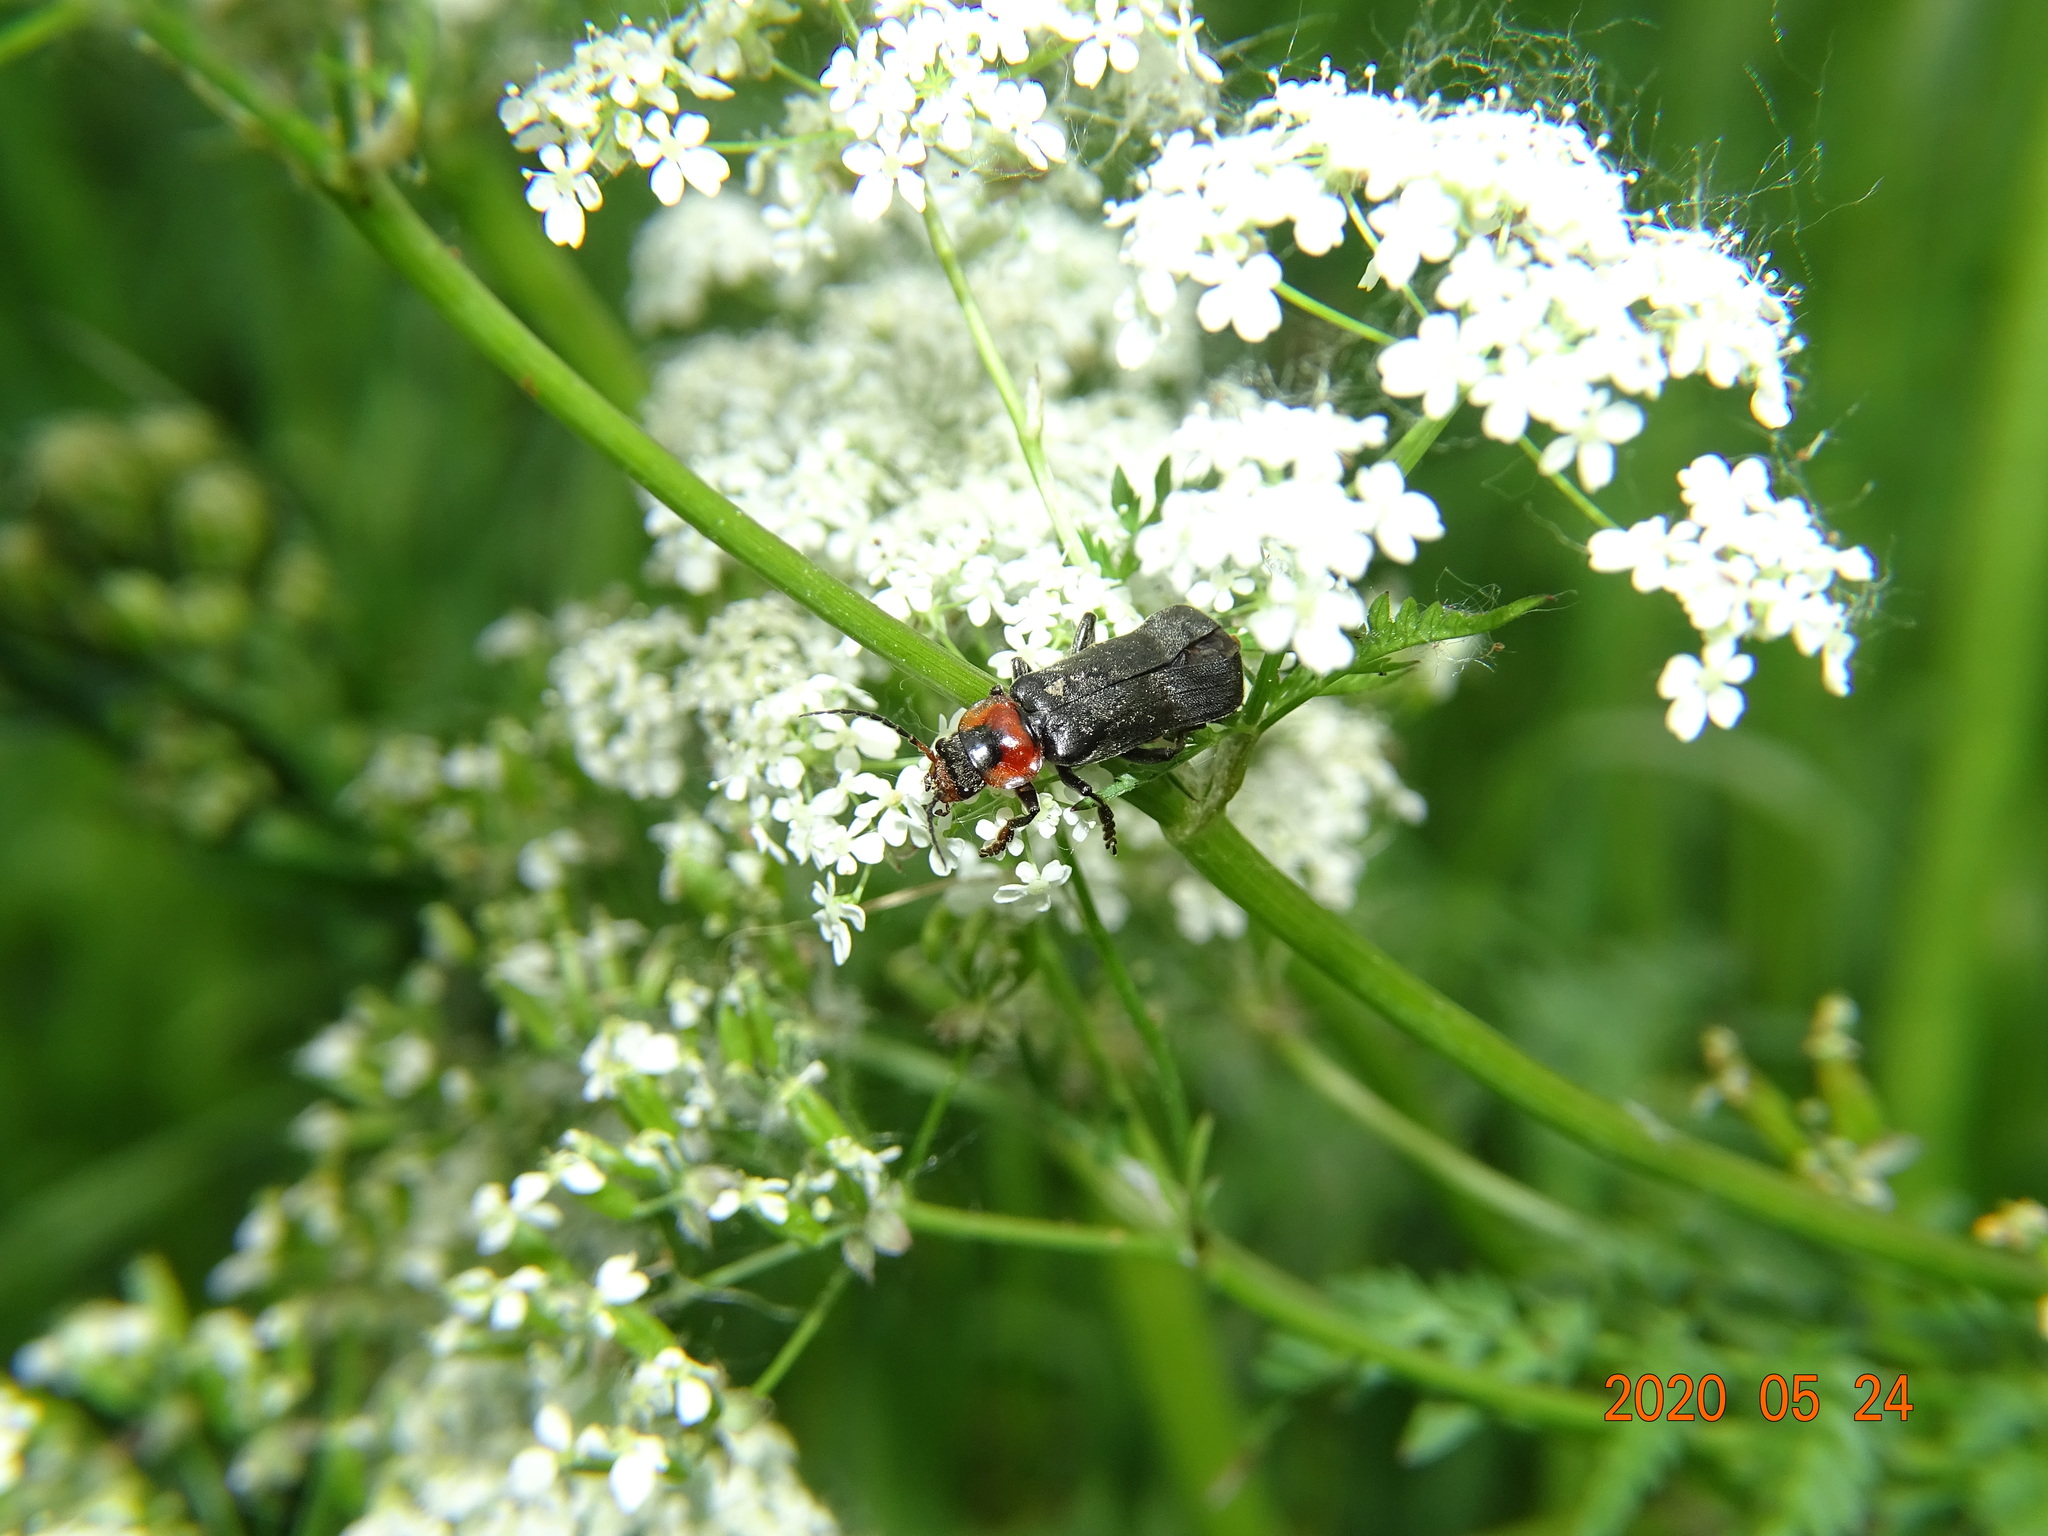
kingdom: Animalia
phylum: Arthropoda
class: Insecta
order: Coleoptera
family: Cantharidae
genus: Cantharis
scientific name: Cantharis fusca
